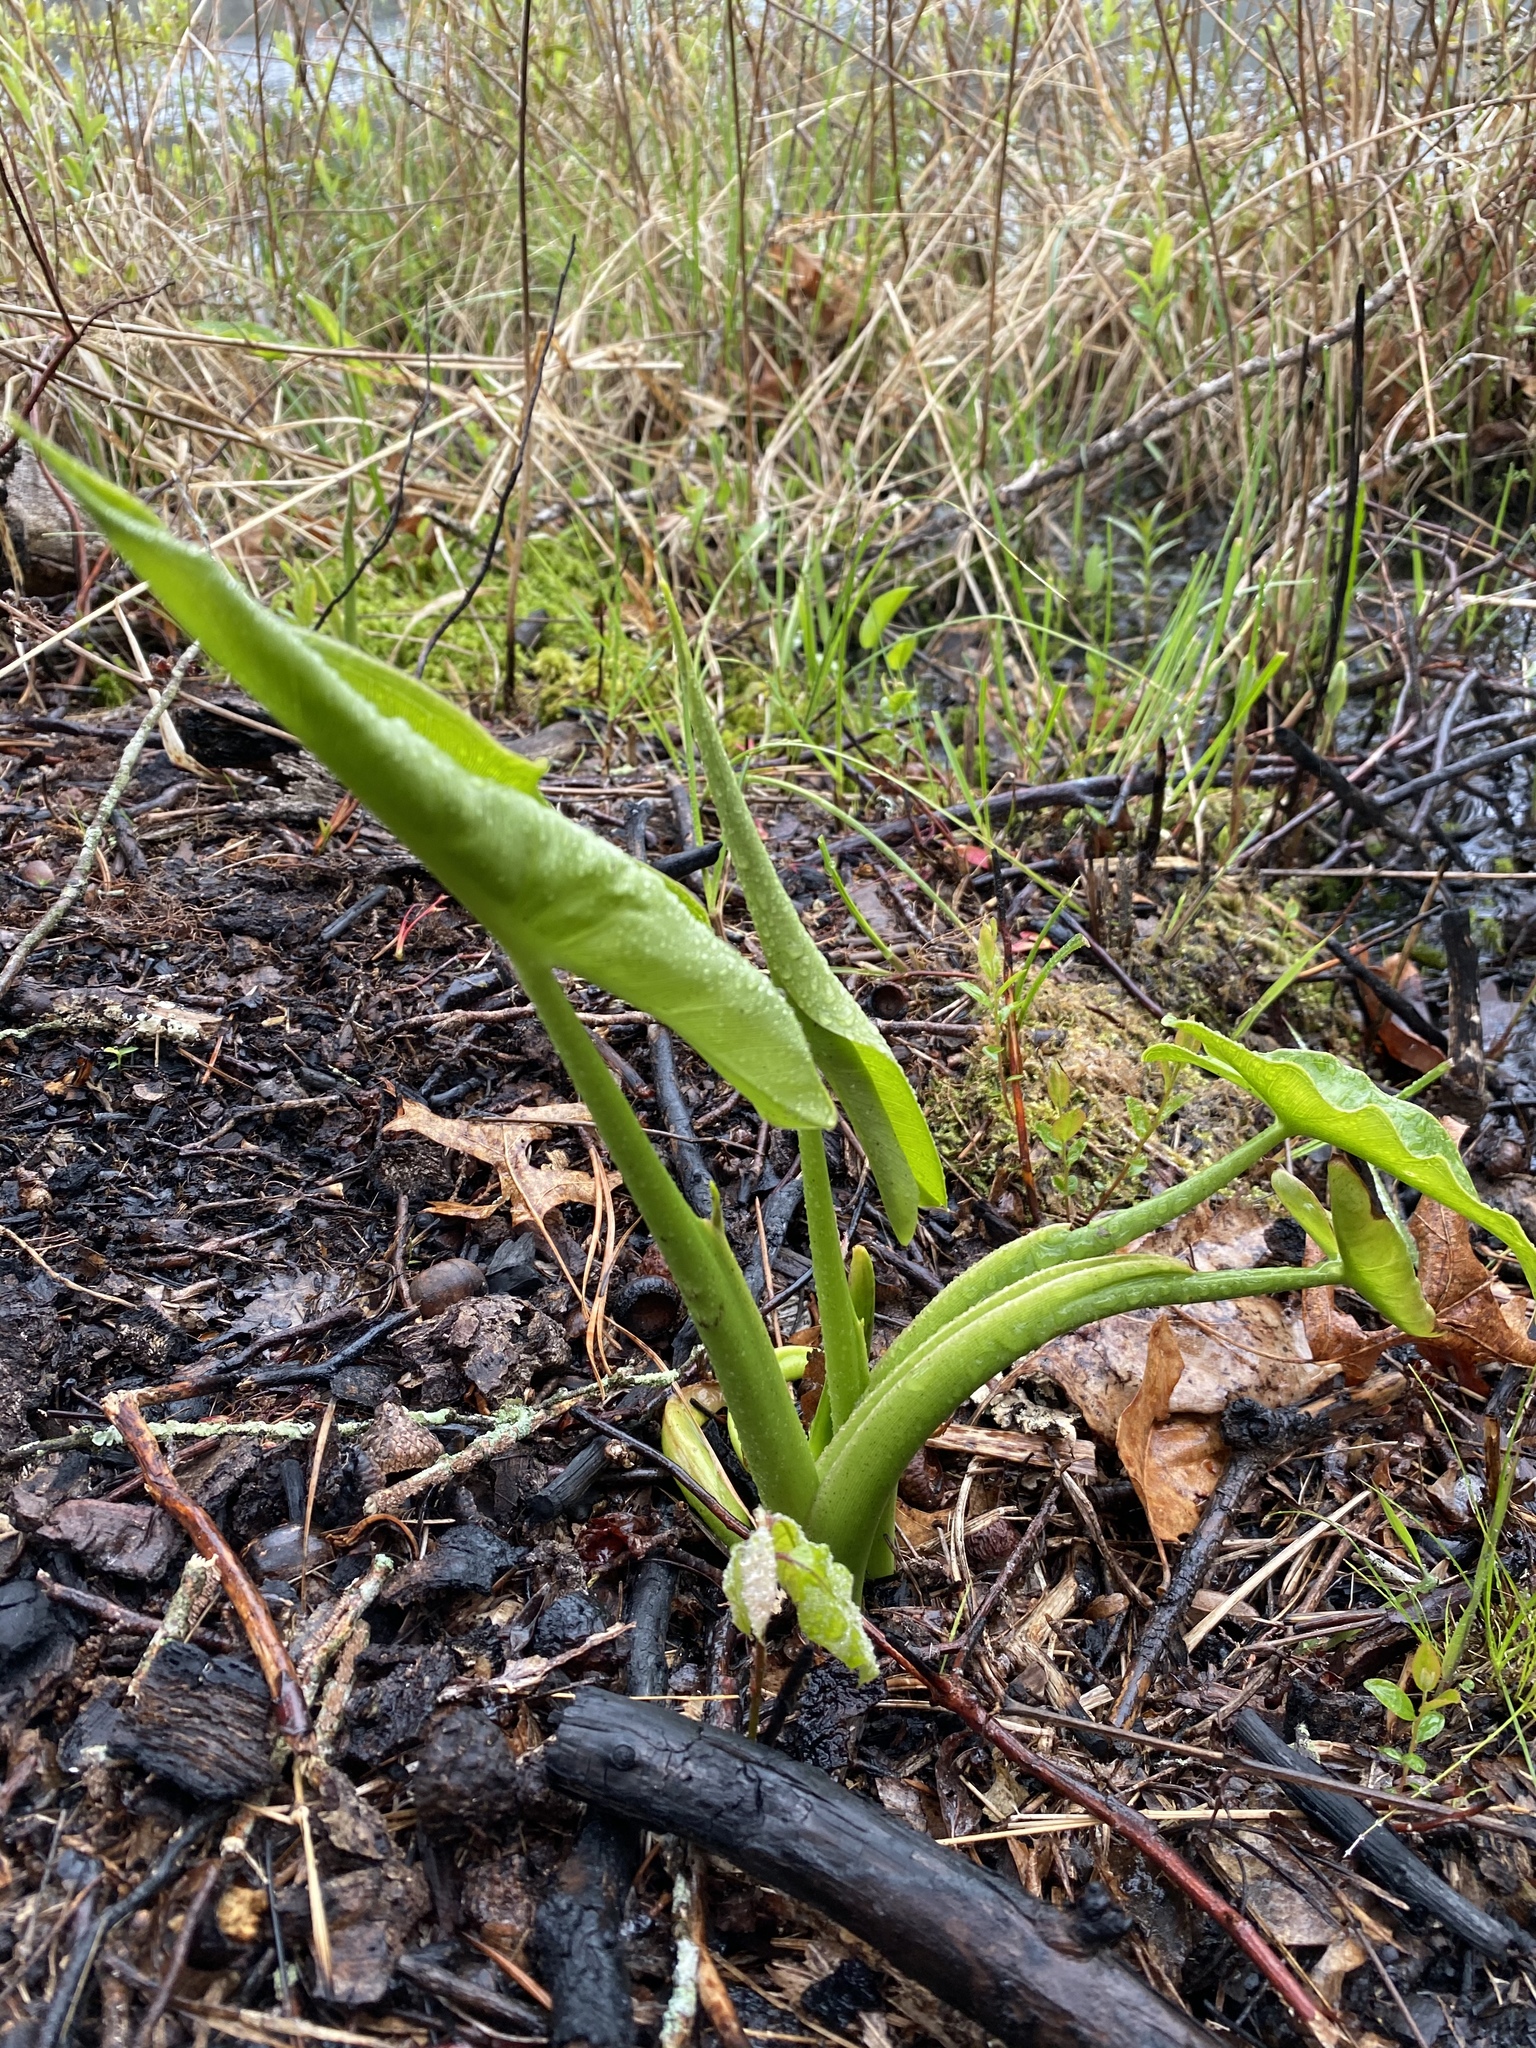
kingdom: Plantae
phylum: Tracheophyta
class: Liliopsida
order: Alismatales
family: Araceae
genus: Peltandra
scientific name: Peltandra virginica
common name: Arrow arum
